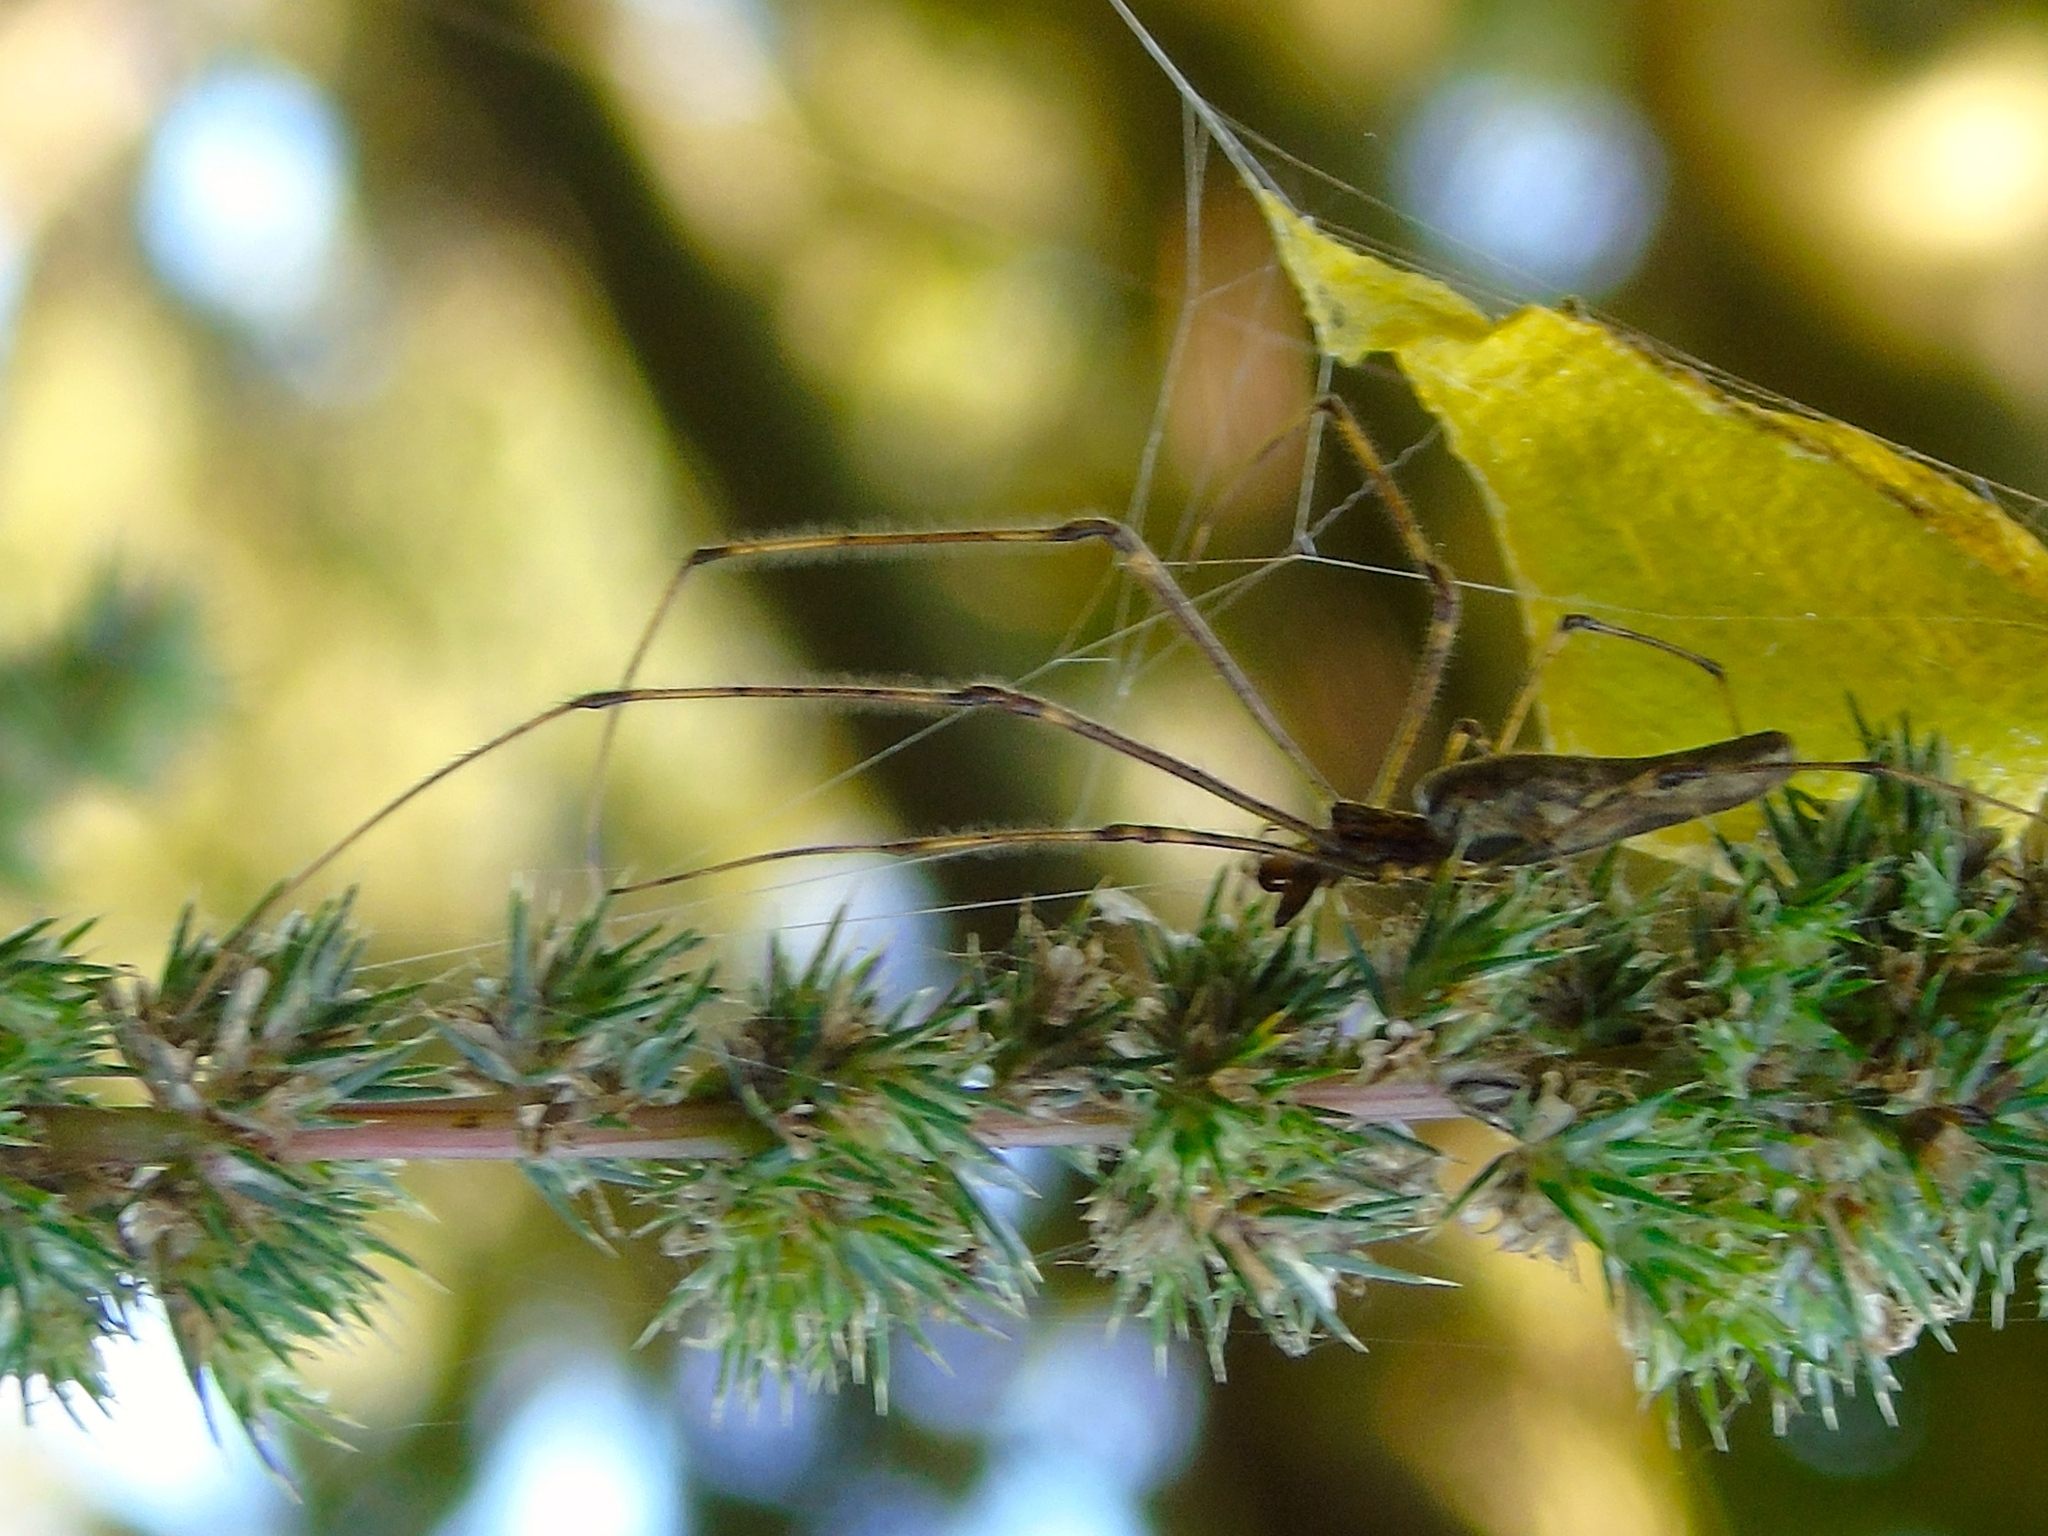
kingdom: Animalia
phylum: Arthropoda
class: Arachnida
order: Araneae
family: Tetragnathidae
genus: Tetragnatha
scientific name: Tetragnatha
